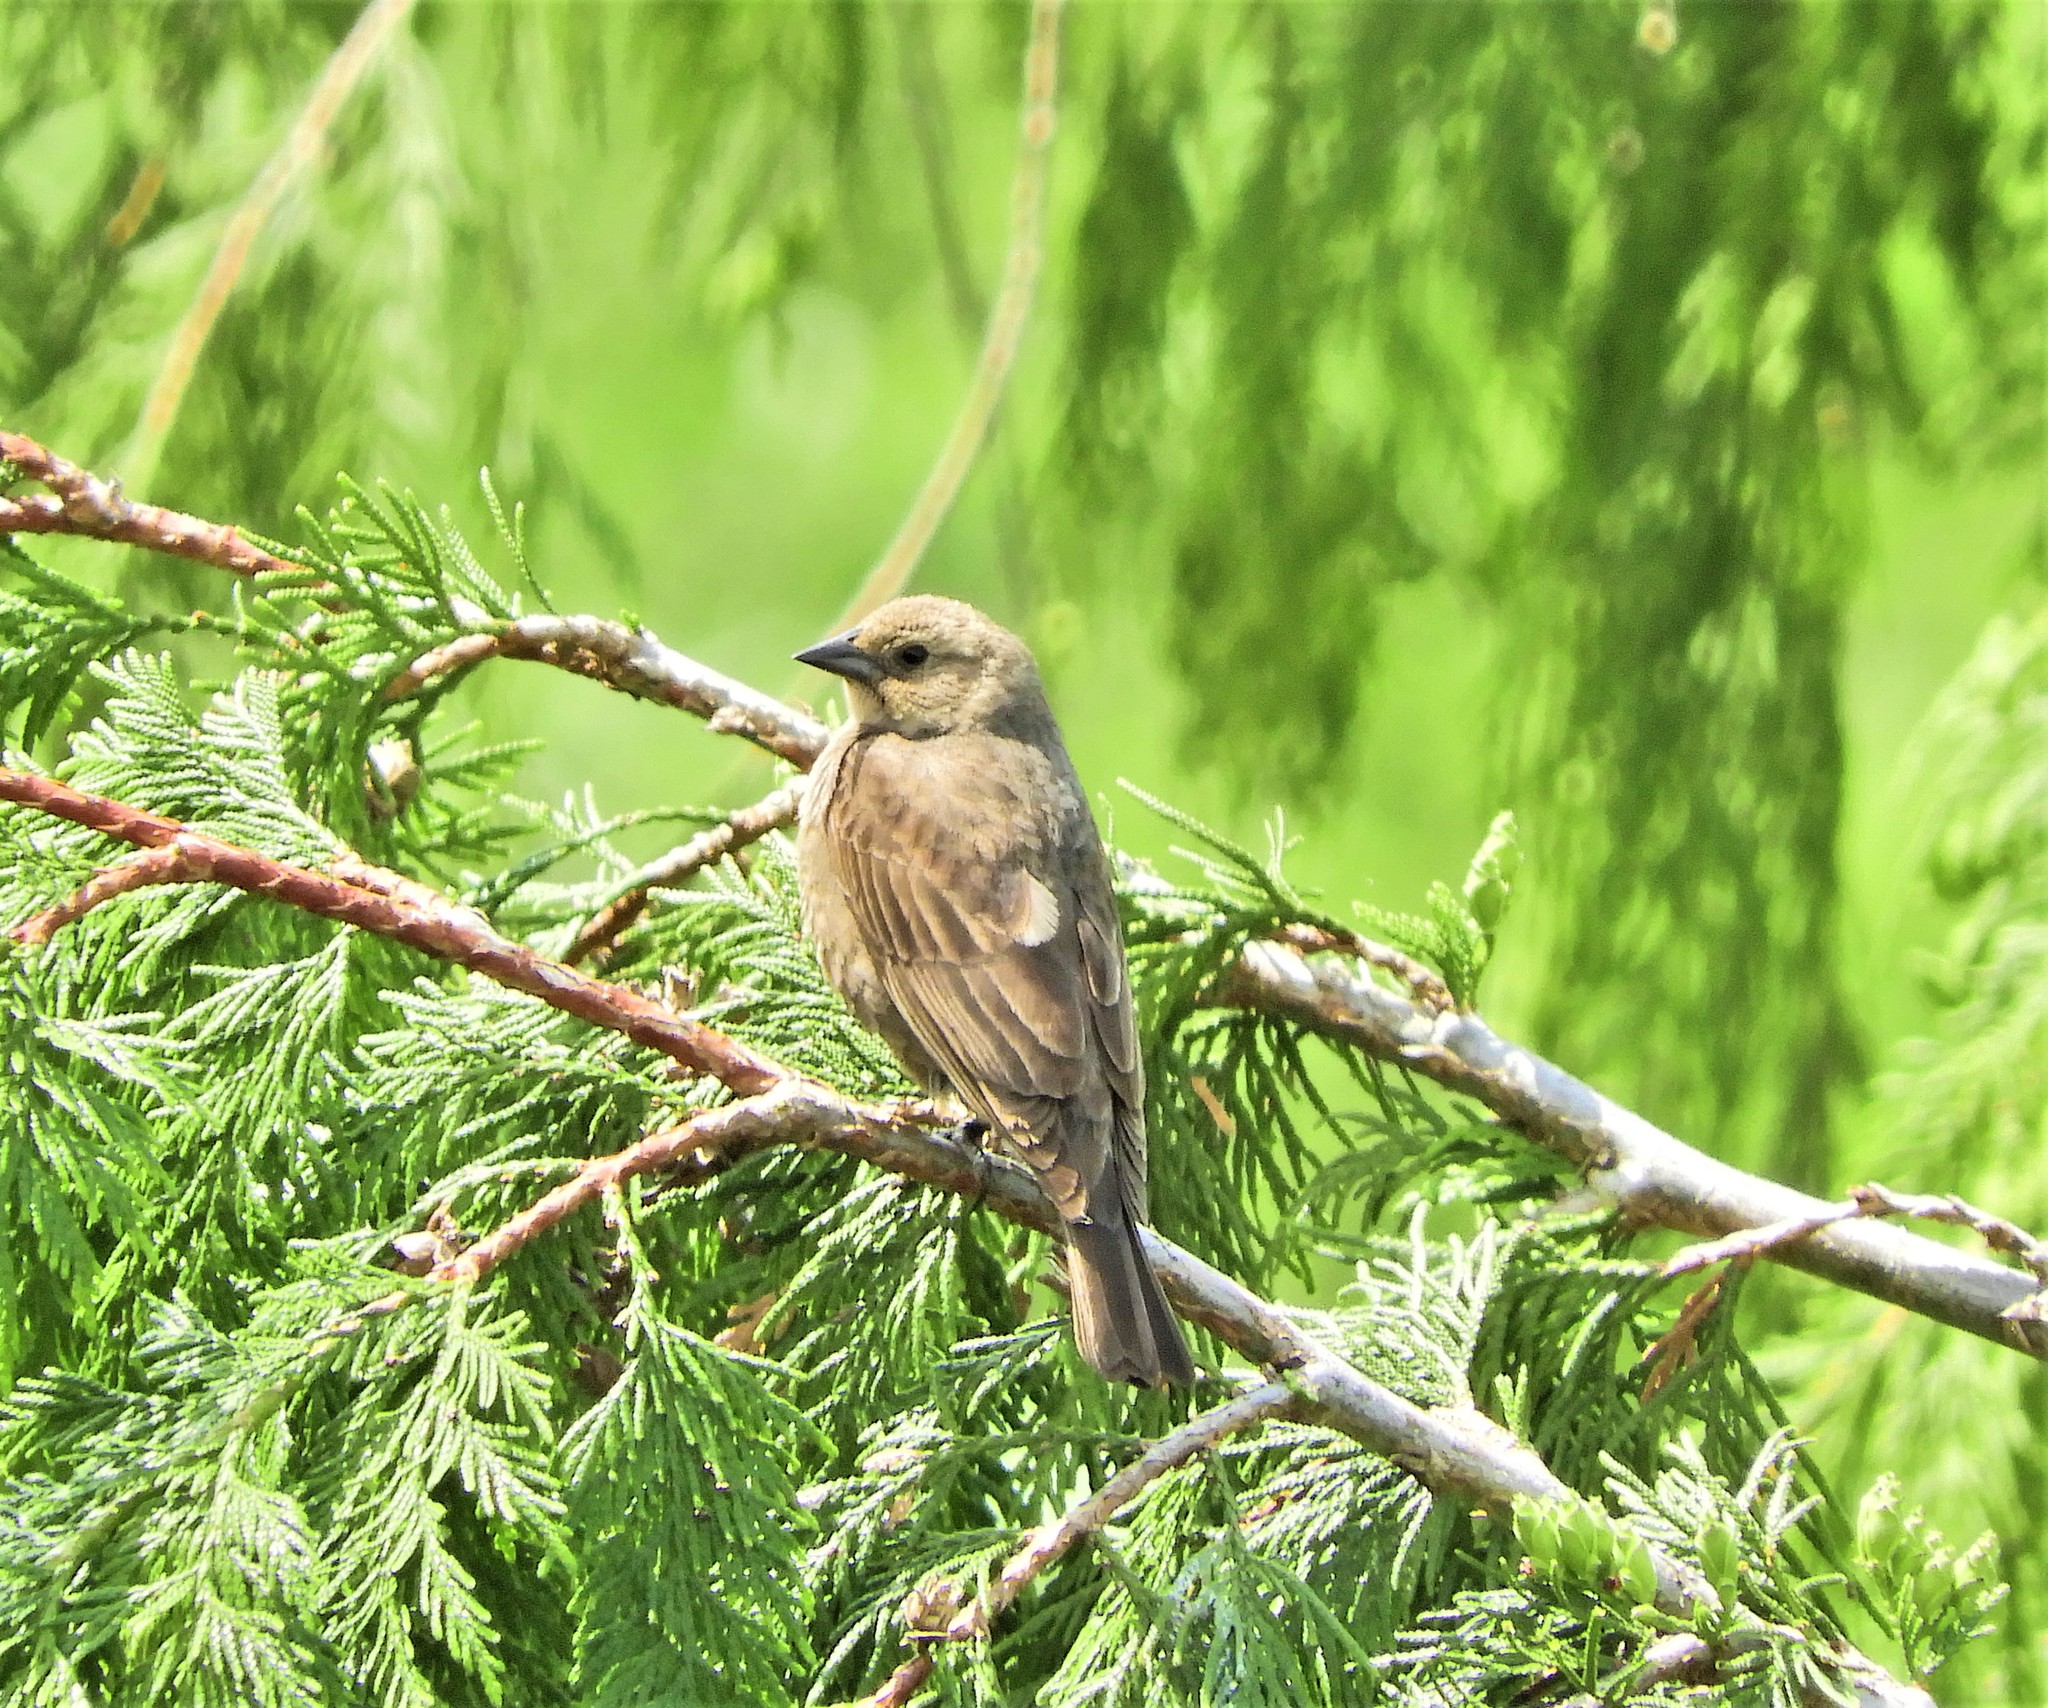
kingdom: Animalia
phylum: Chordata
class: Aves
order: Passeriformes
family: Icteridae
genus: Molothrus
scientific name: Molothrus ater
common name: Brown-headed cowbird
